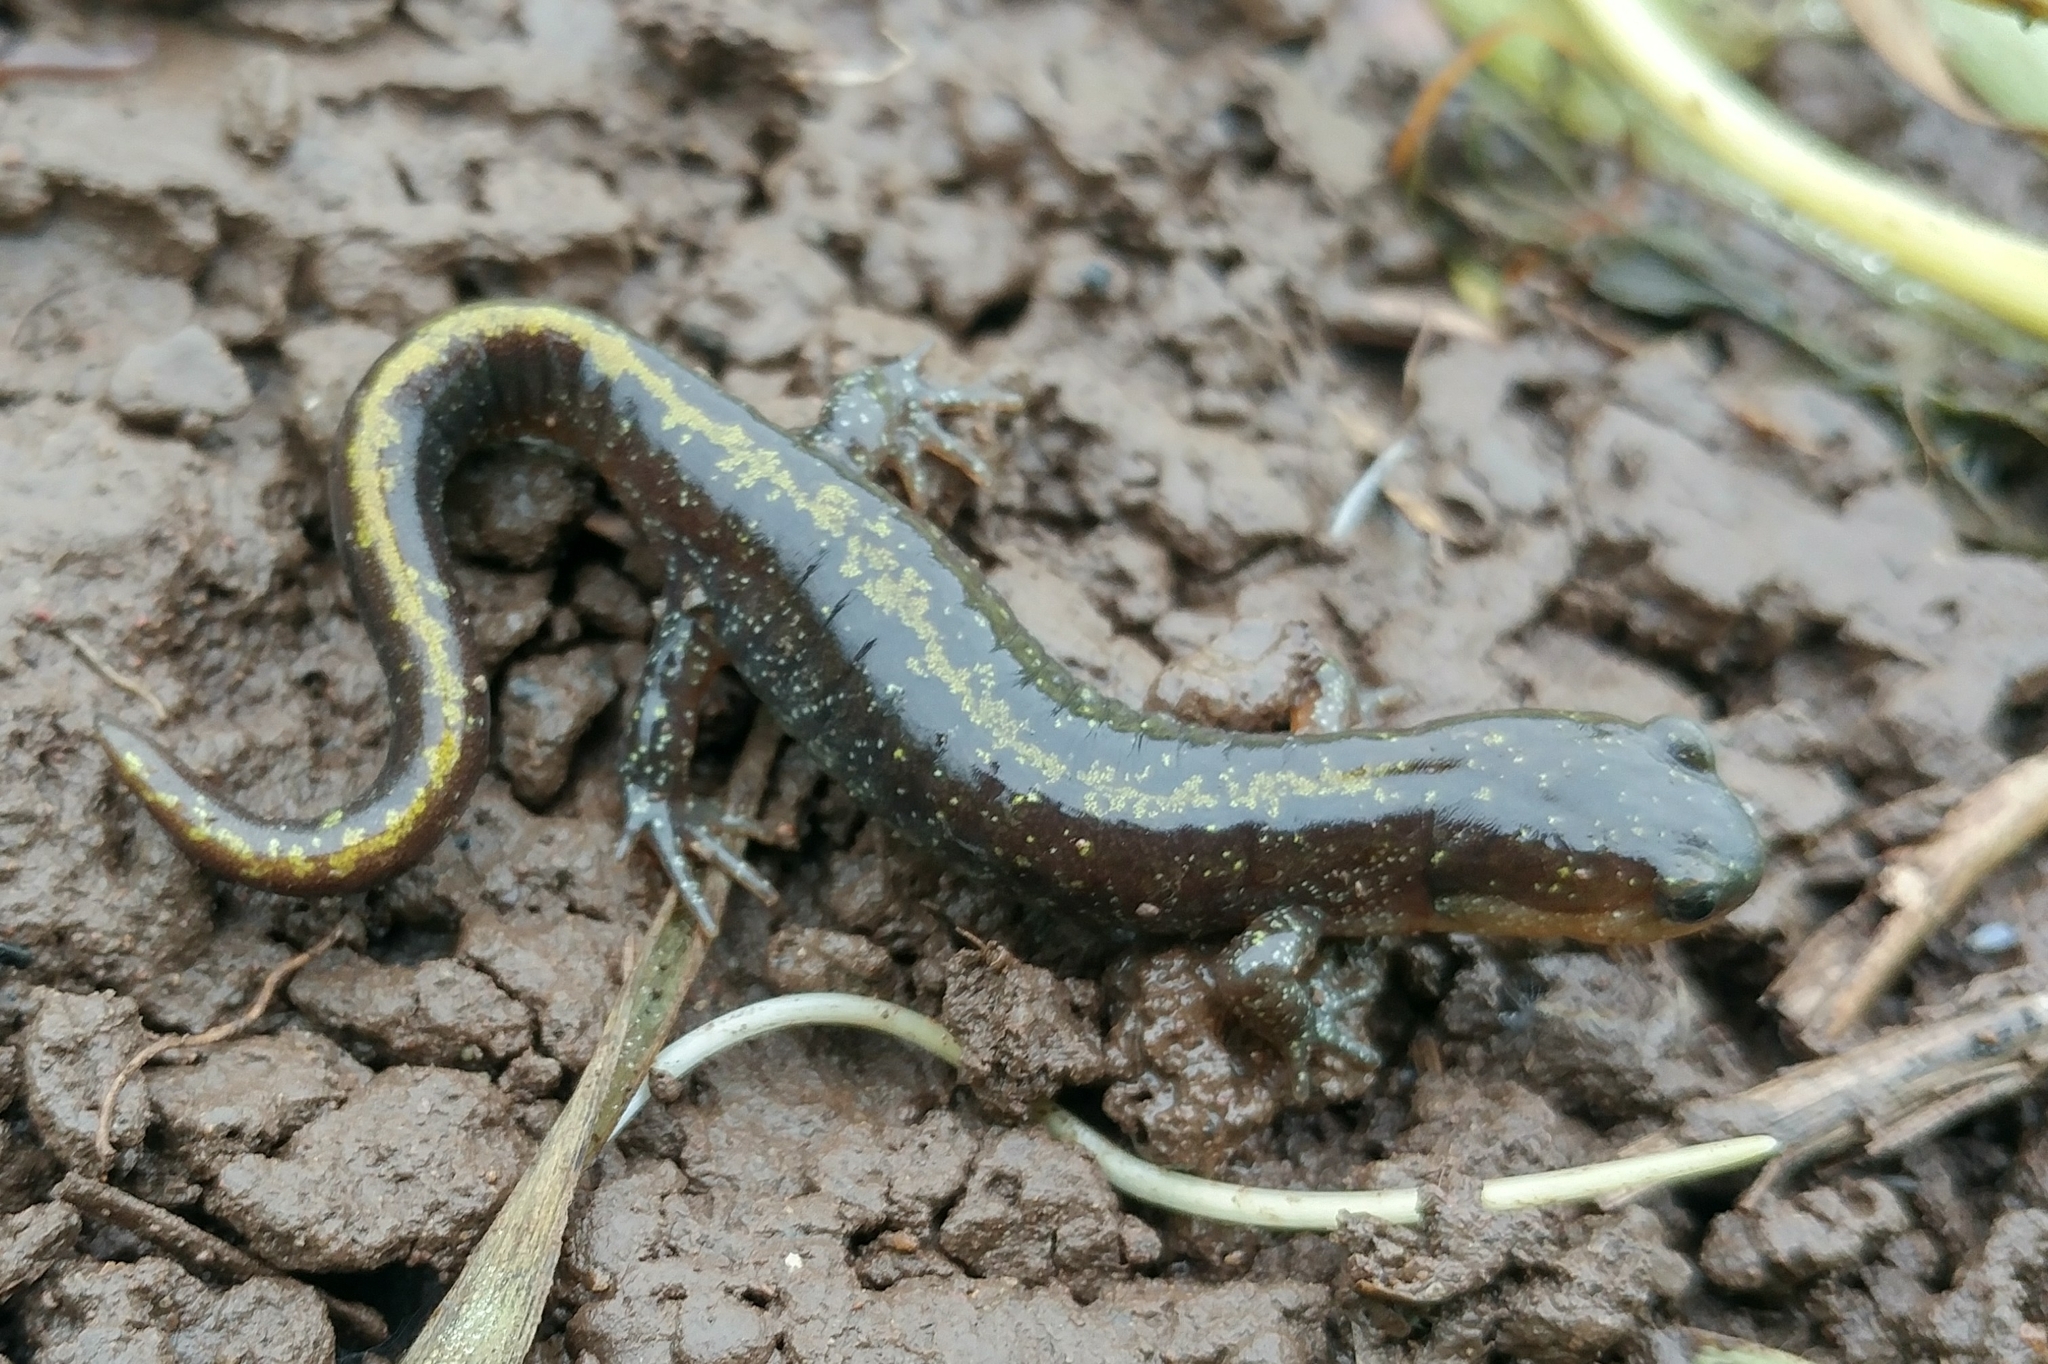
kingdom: Animalia
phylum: Chordata
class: Amphibia
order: Caudata
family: Ambystomatidae
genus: Ambystoma
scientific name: Ambystoma macrodactylum
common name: Long-toed salamander
